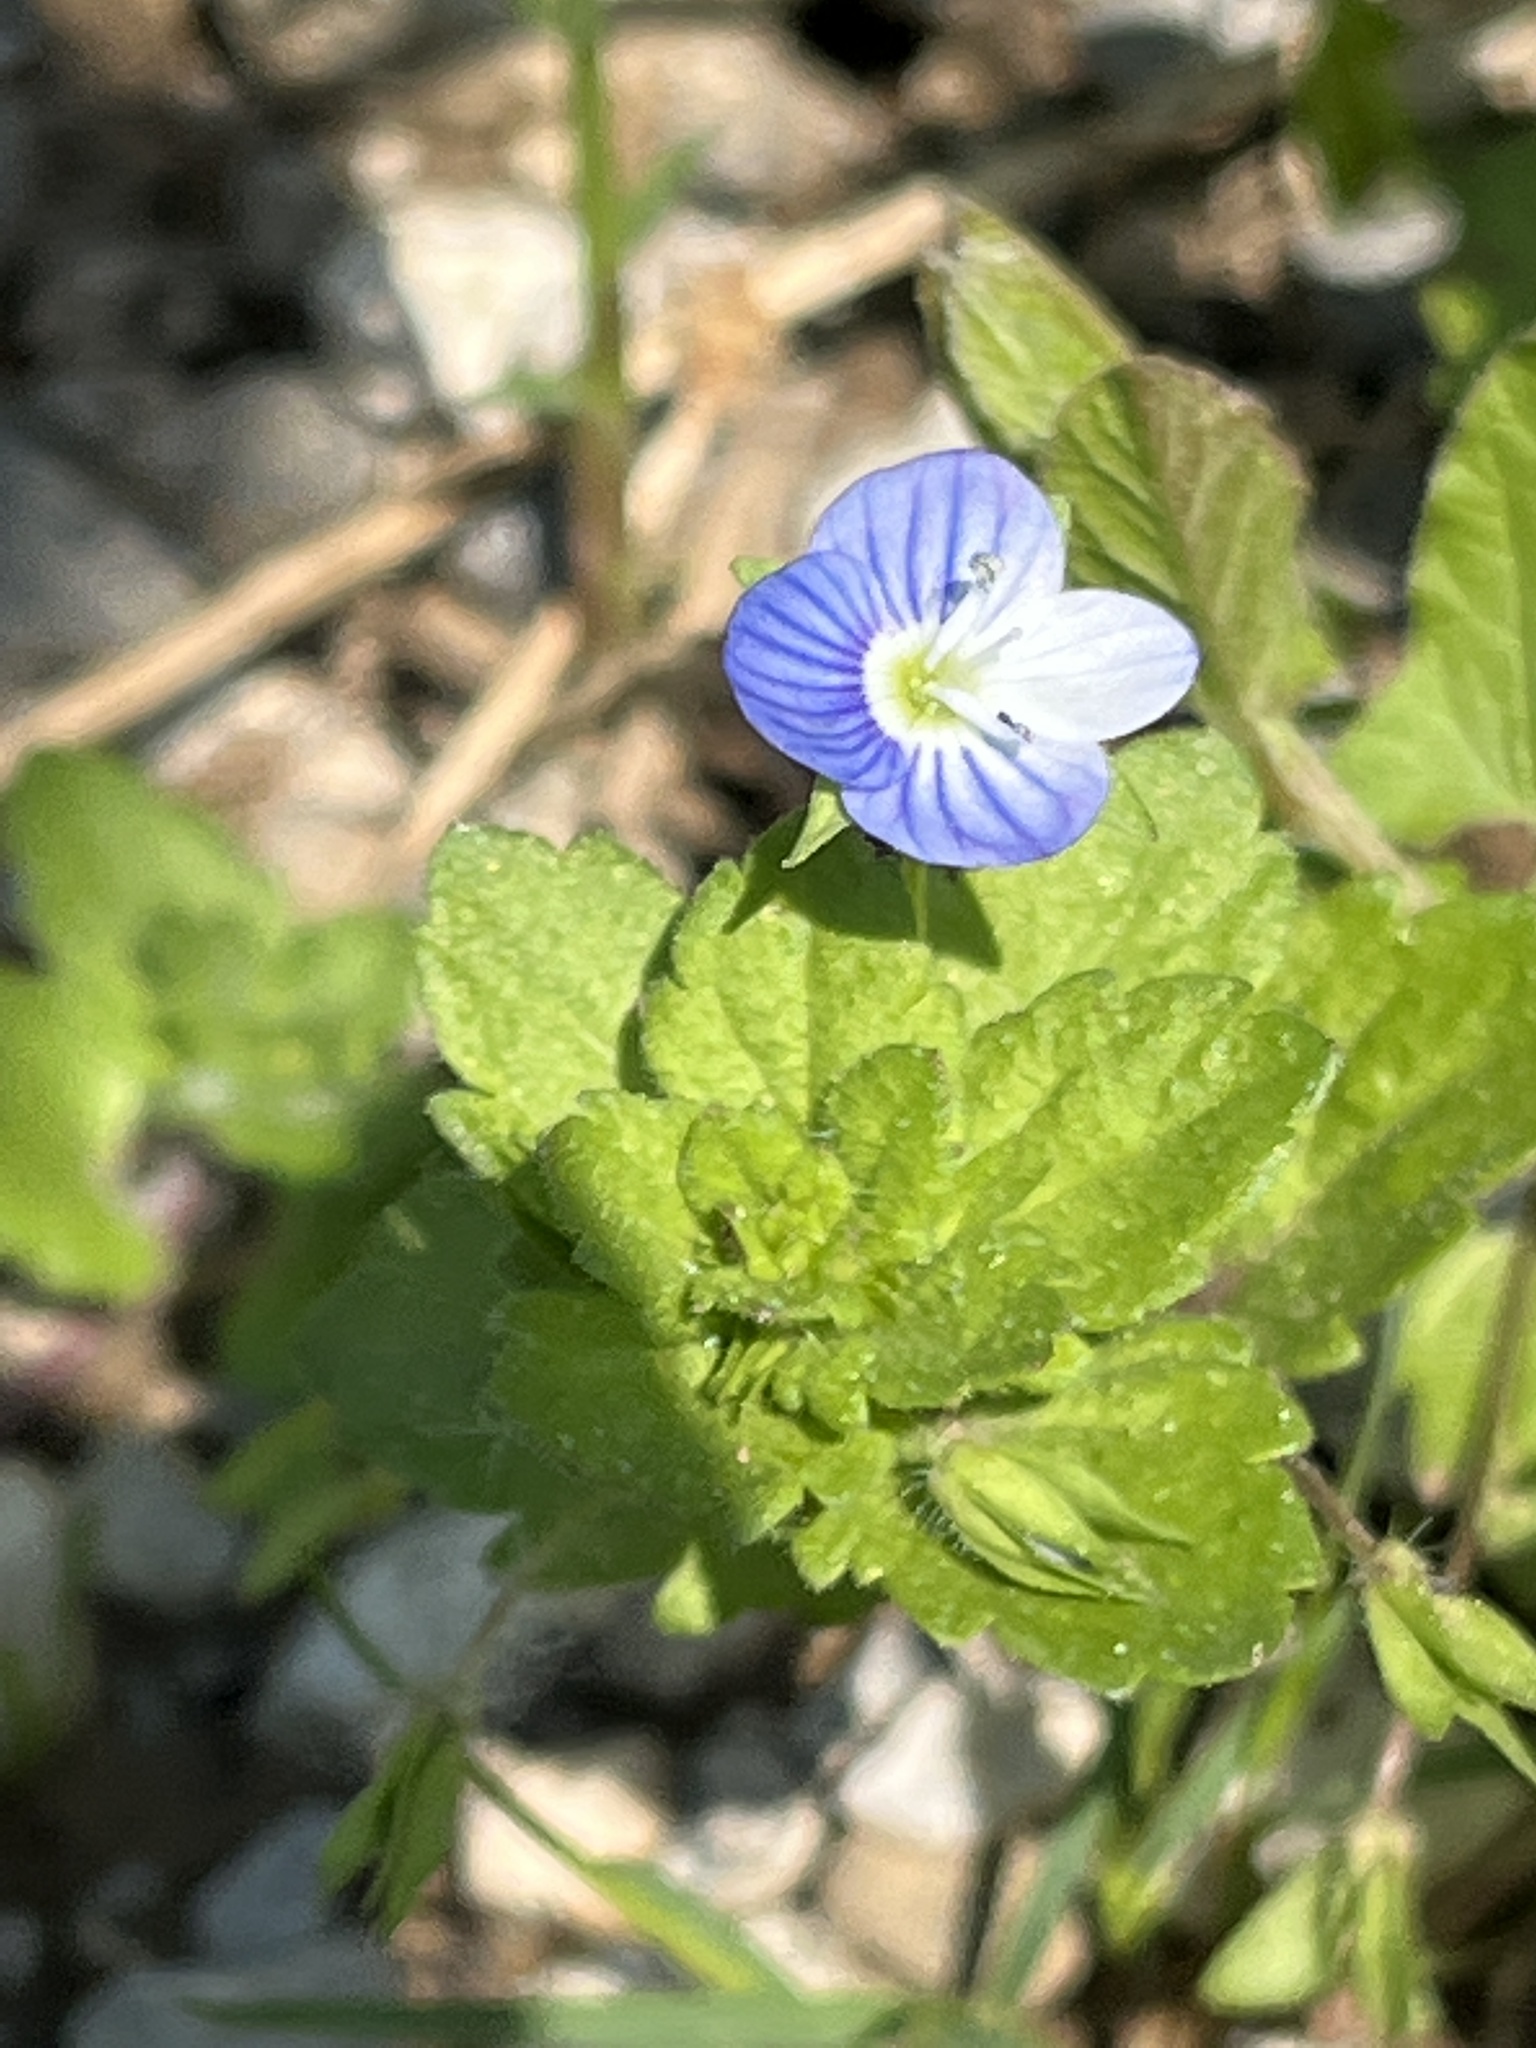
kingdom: Plantae
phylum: Tracheophyta
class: Magnoliopsida
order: Lamiales
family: Plantaginaceae
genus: Veronica
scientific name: Veronica persica
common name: Common field-speedwell
